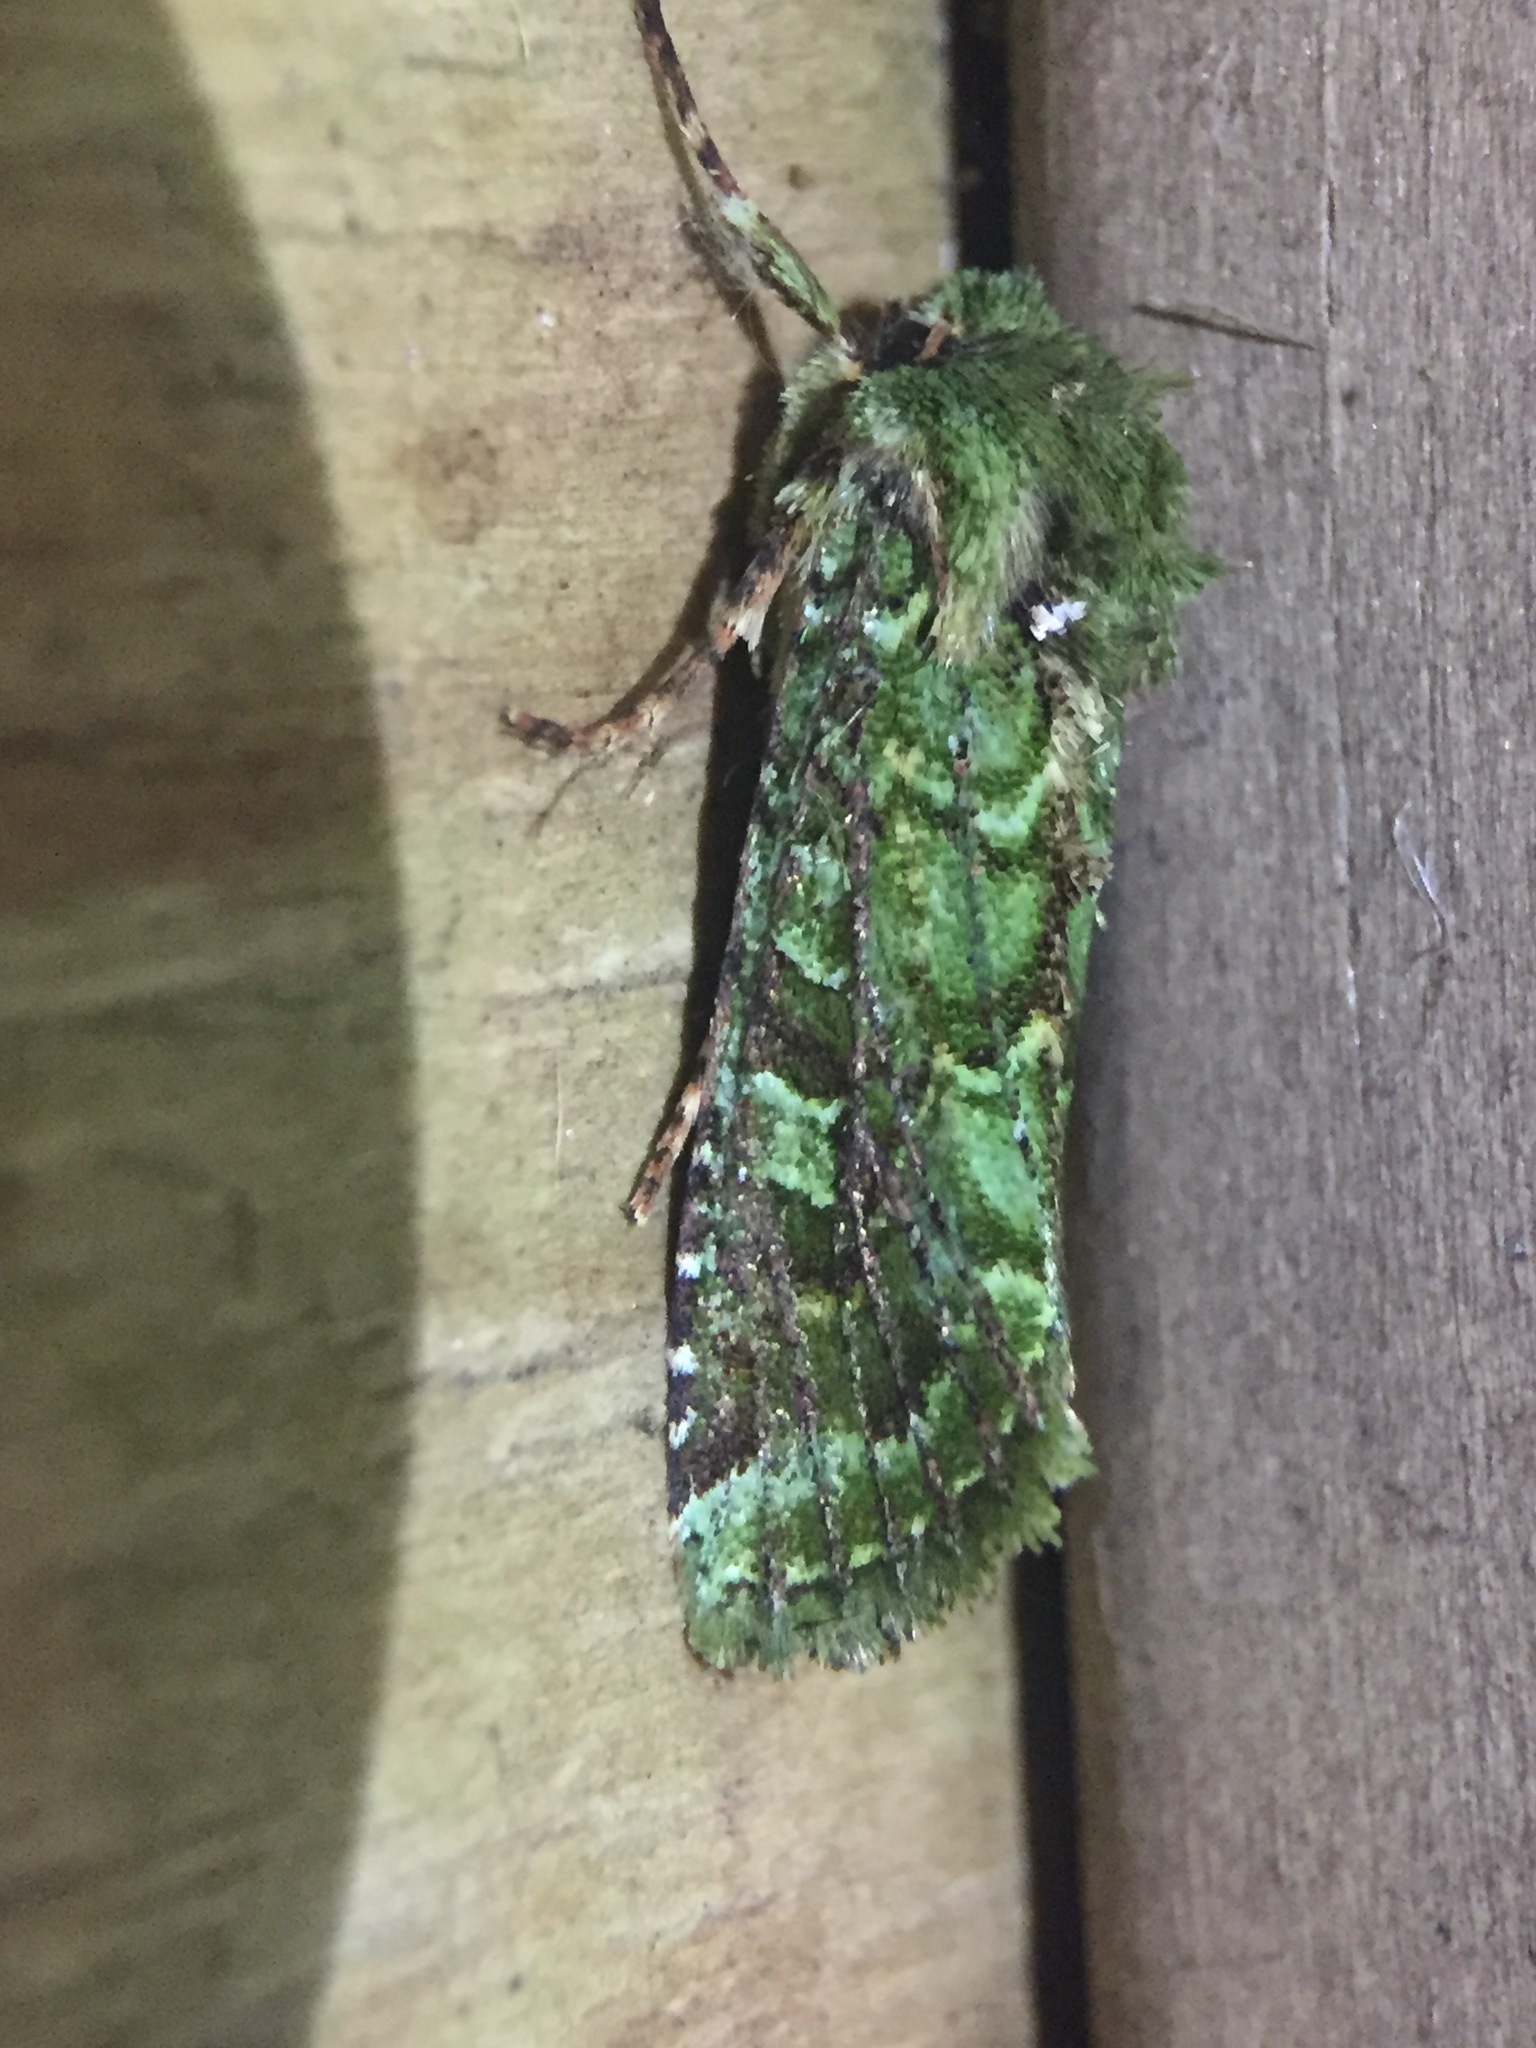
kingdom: Animalia
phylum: Arthropoda
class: Insecta
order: Lepidoptera
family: Noctuidae
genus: Feredayia
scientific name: Feredayia grammosa
